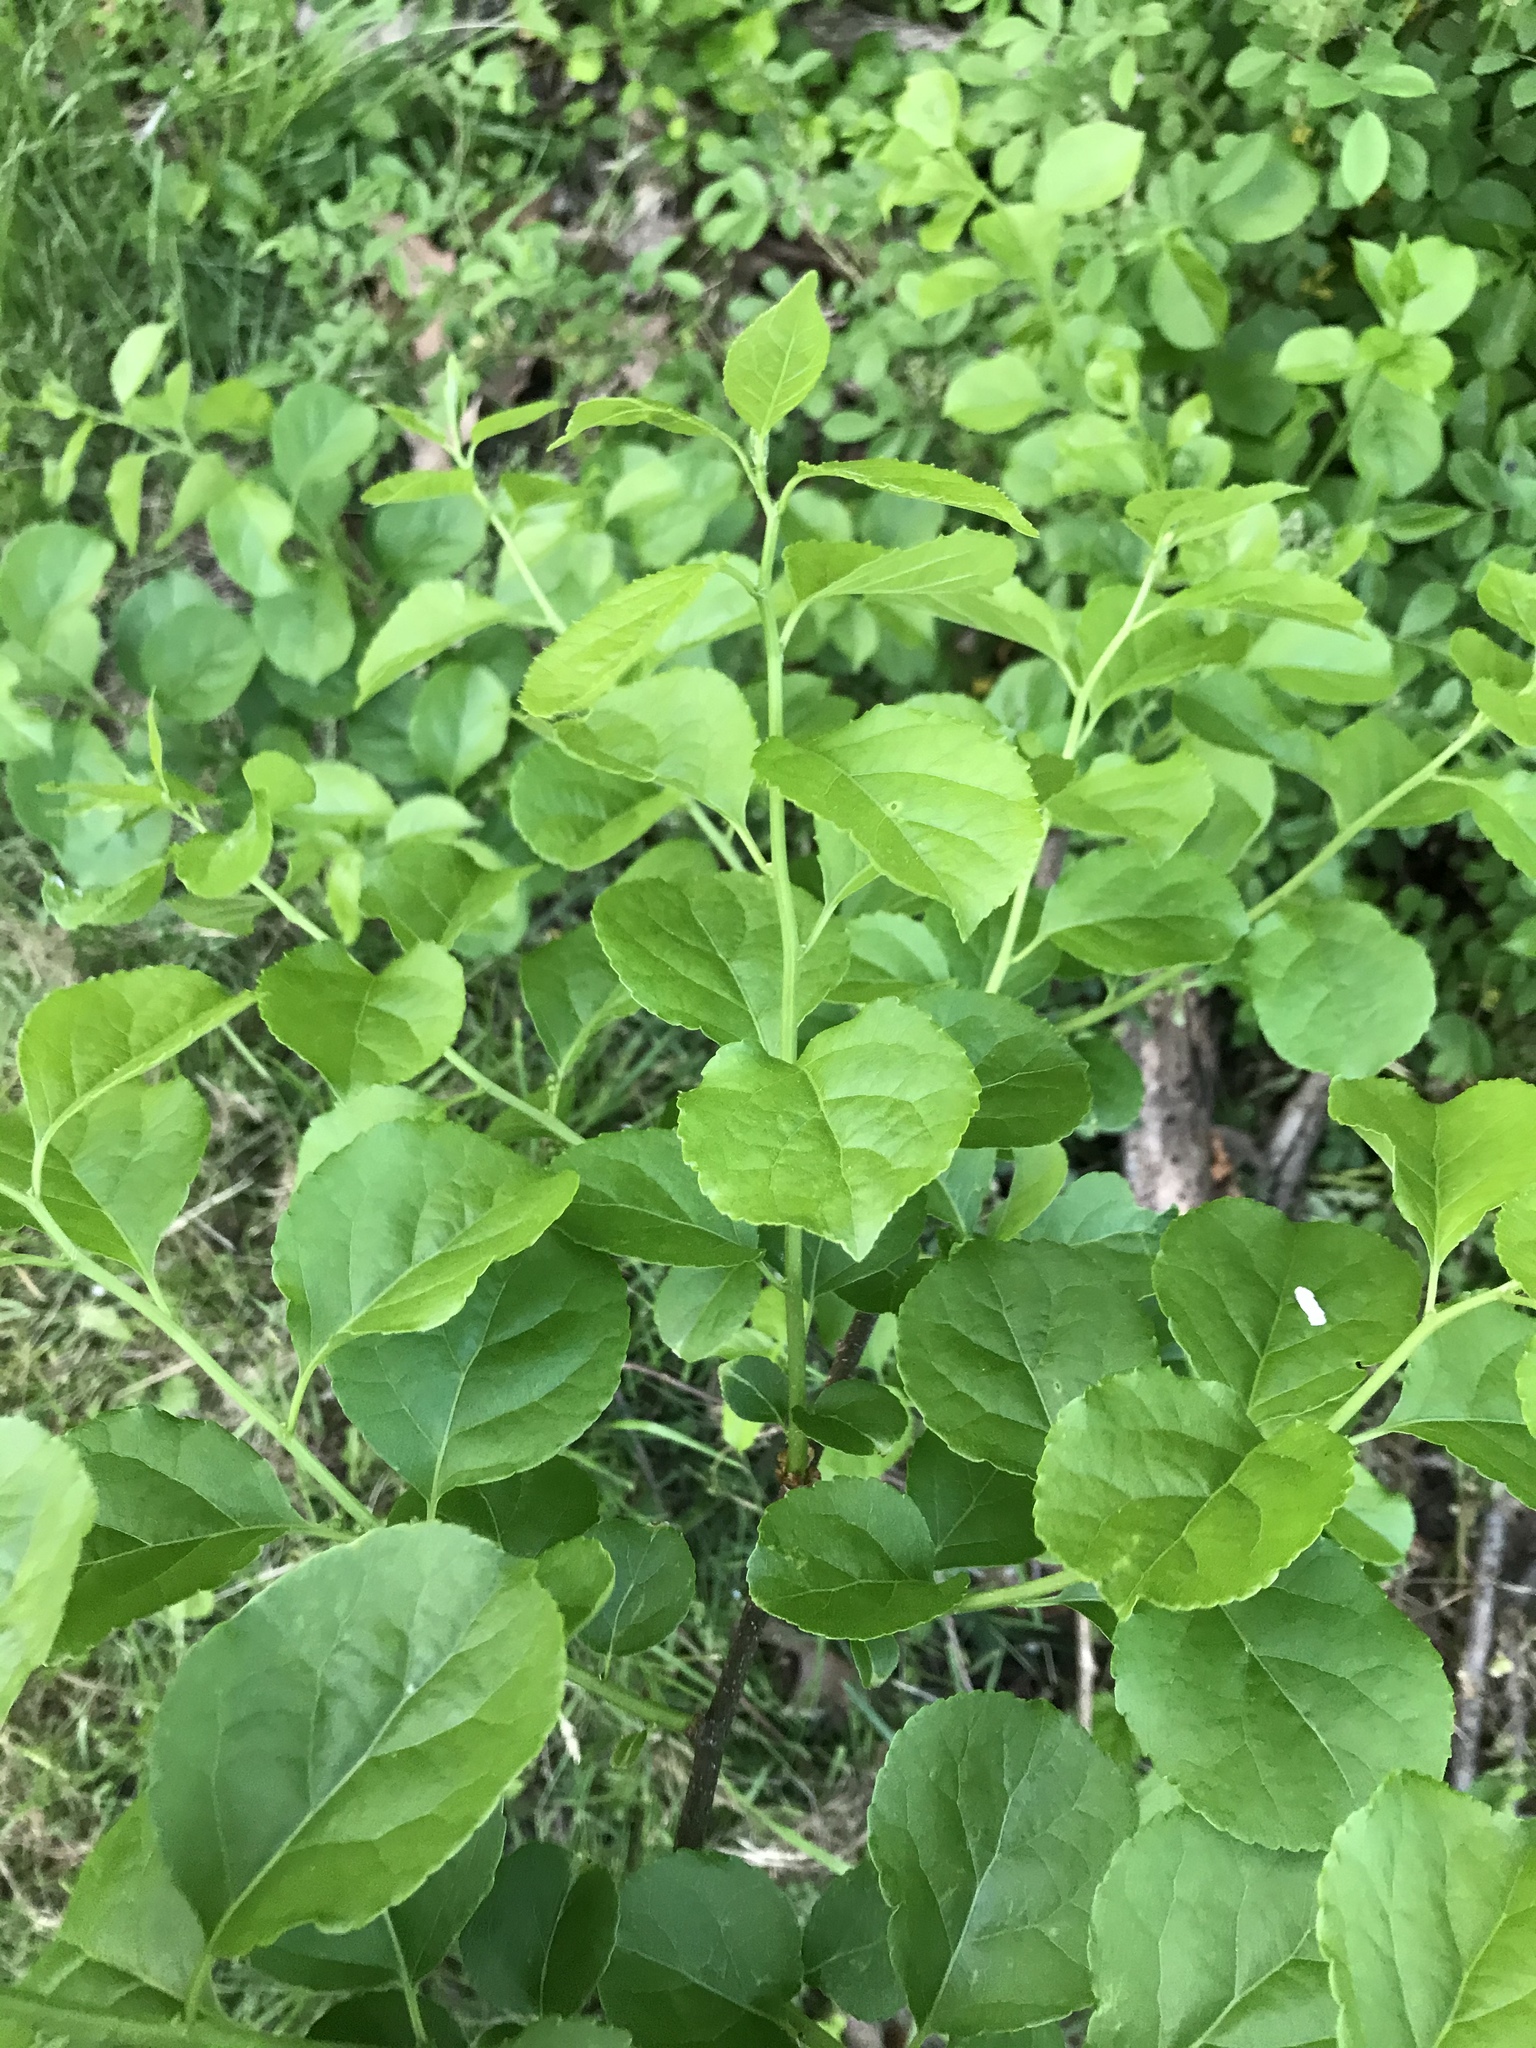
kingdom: Plantae
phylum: Tracheophyta
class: Magnoliopsida
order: Celastrales
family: Celastraceae
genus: Celastrus
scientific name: Celastrus orbiculatus
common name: Oriental bittersweet
